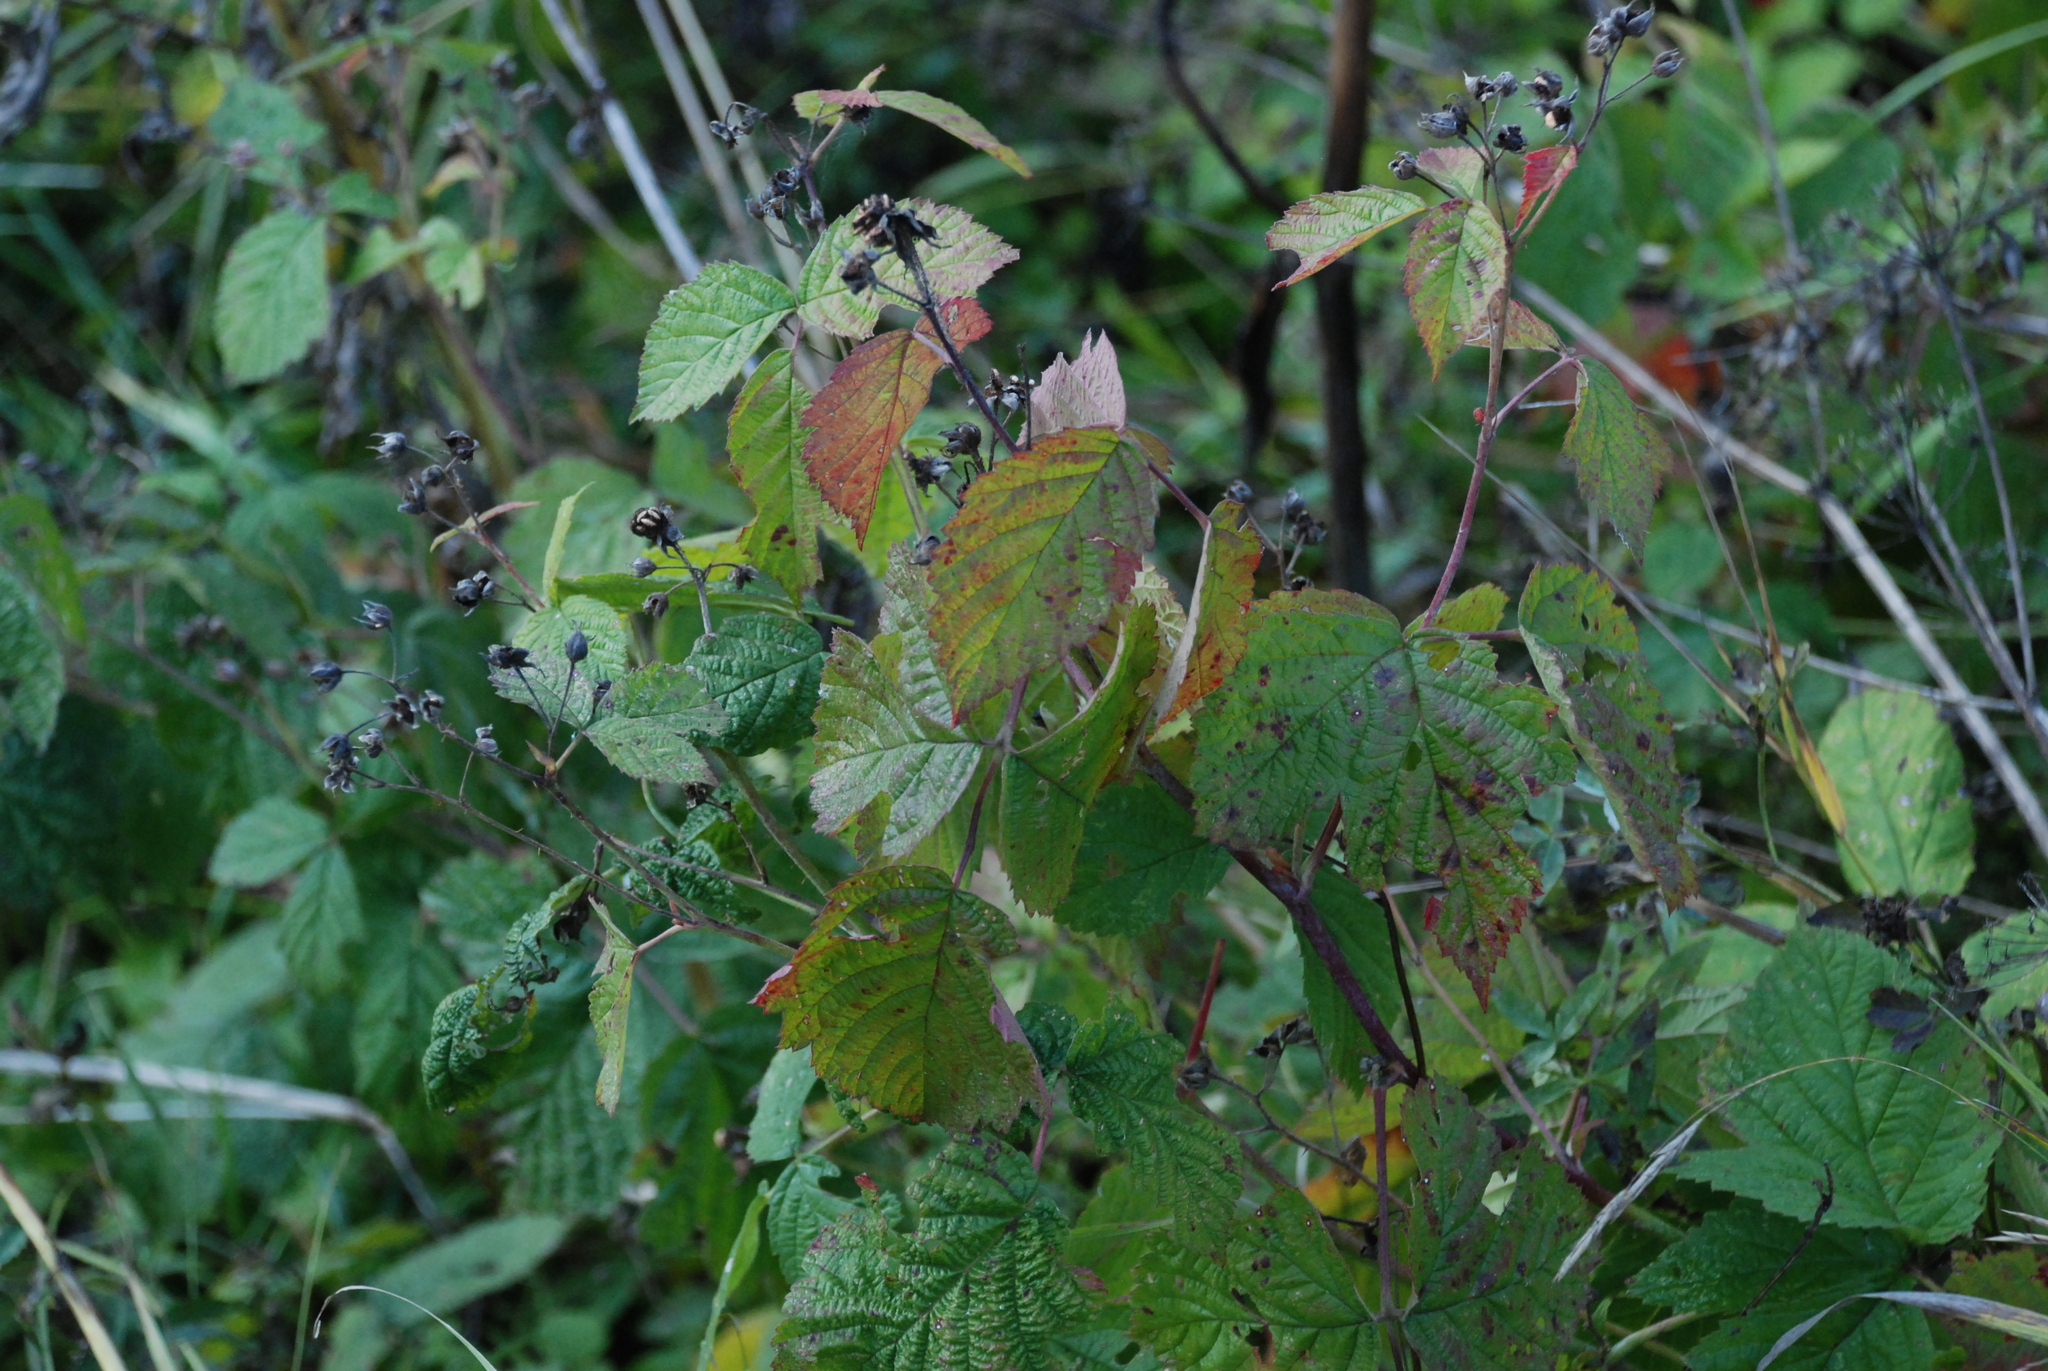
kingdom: Plantae
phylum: Tracheophyta
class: Magnoliopsida
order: Rosales
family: Rosaceae
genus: Rubus
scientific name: Rubus caesius
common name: Dewberry
